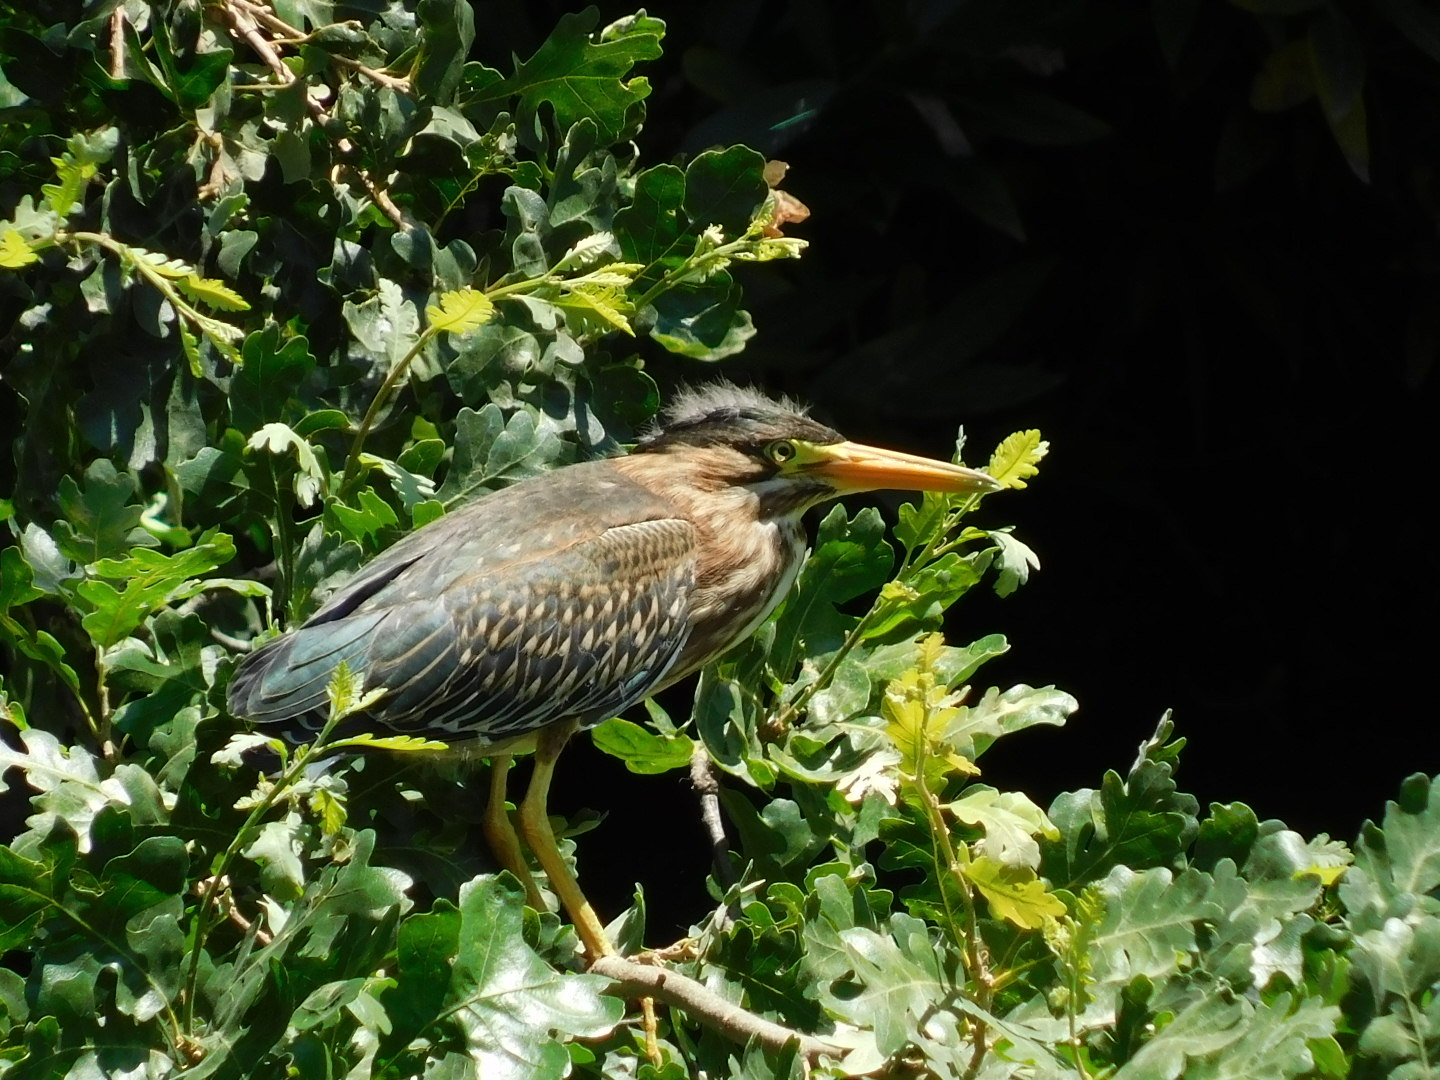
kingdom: Animalia
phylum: Chordata
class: Aves
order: Pelecaniformes
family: Ardeidae
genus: Butorides
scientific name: Butorides virescens
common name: Green heron
